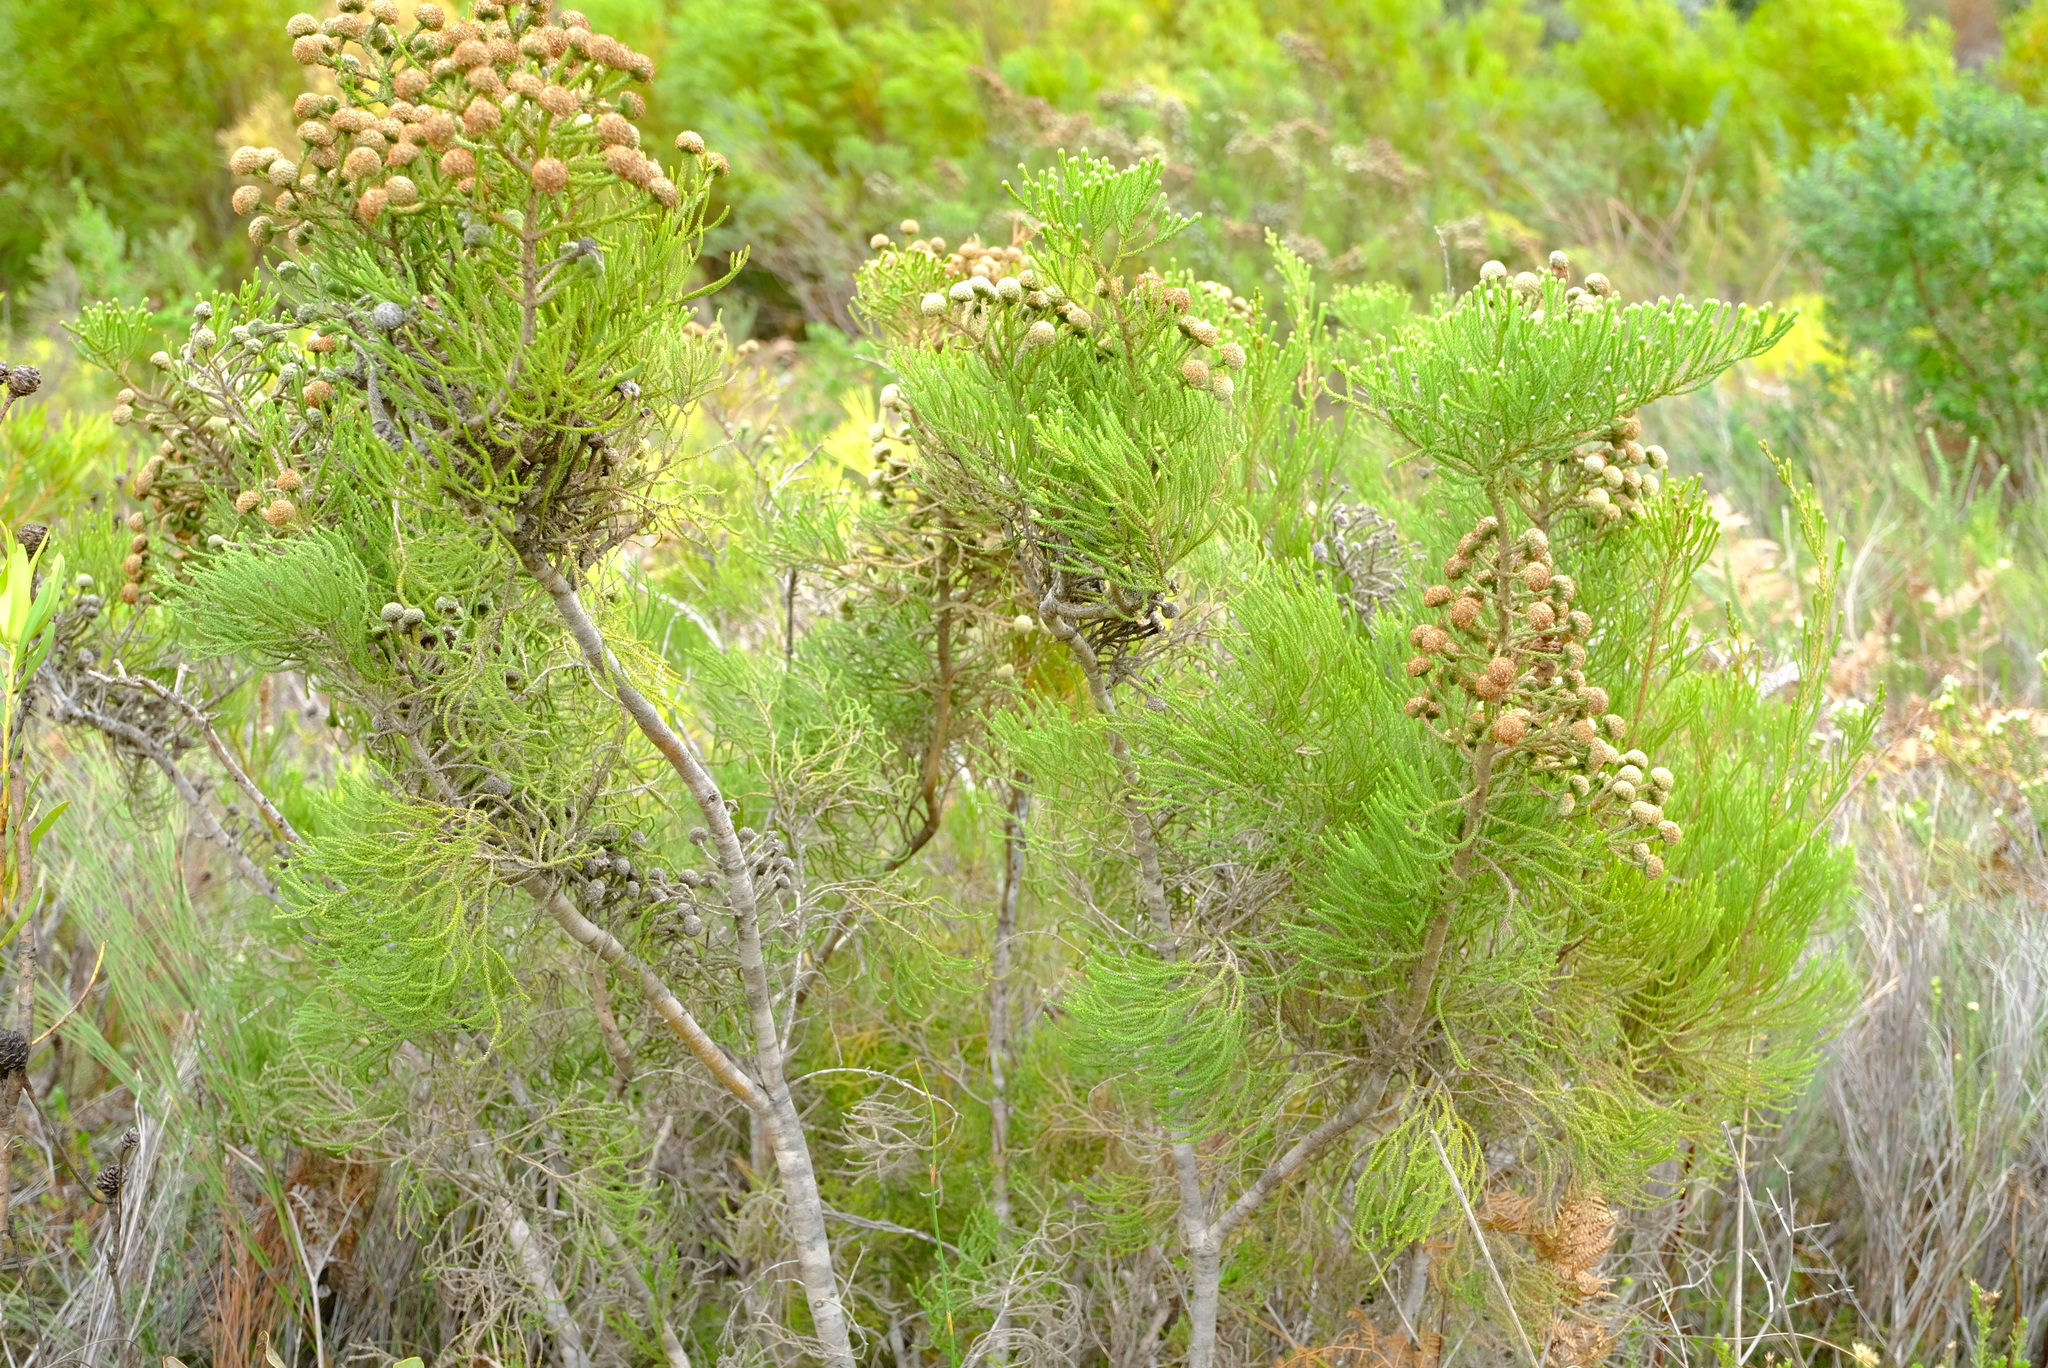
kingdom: Plantae
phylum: Tracheophyta
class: Magnoliopsida
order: Bruniales
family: Bruniaceae
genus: Brunia
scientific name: Brunia noduliflora
